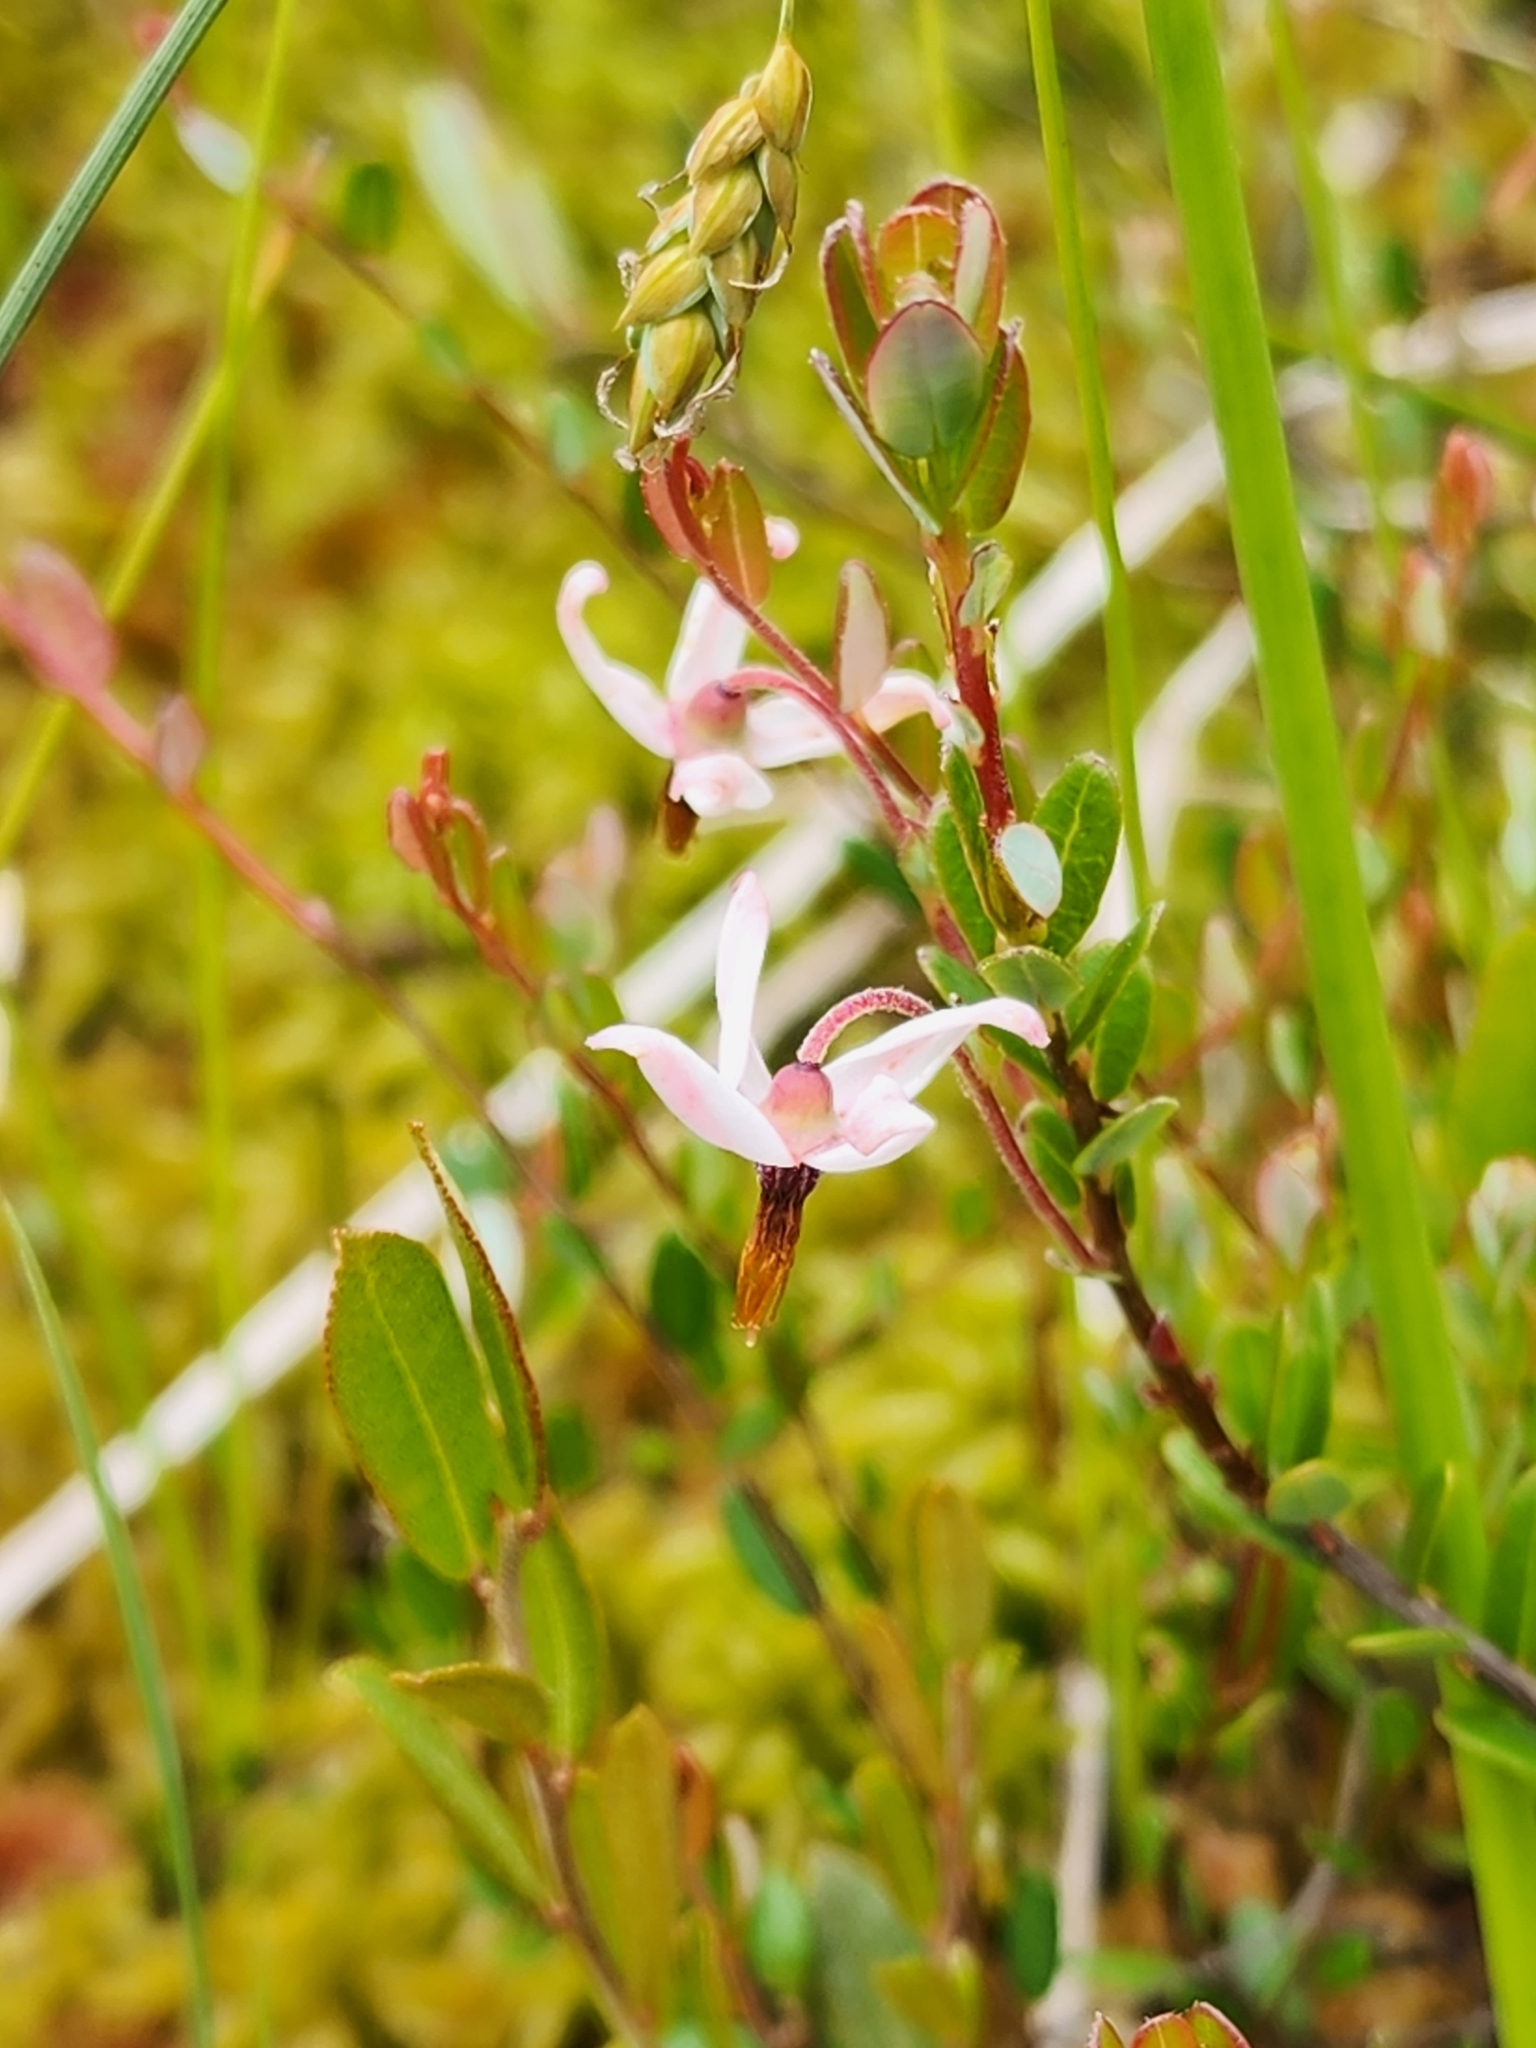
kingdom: Plantae
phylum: Tracheophyta
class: Magnoliopsida
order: Ericales
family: Ericaceae
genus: Vaccinium
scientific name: Vaccinium macrocarpon
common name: American cranberry
